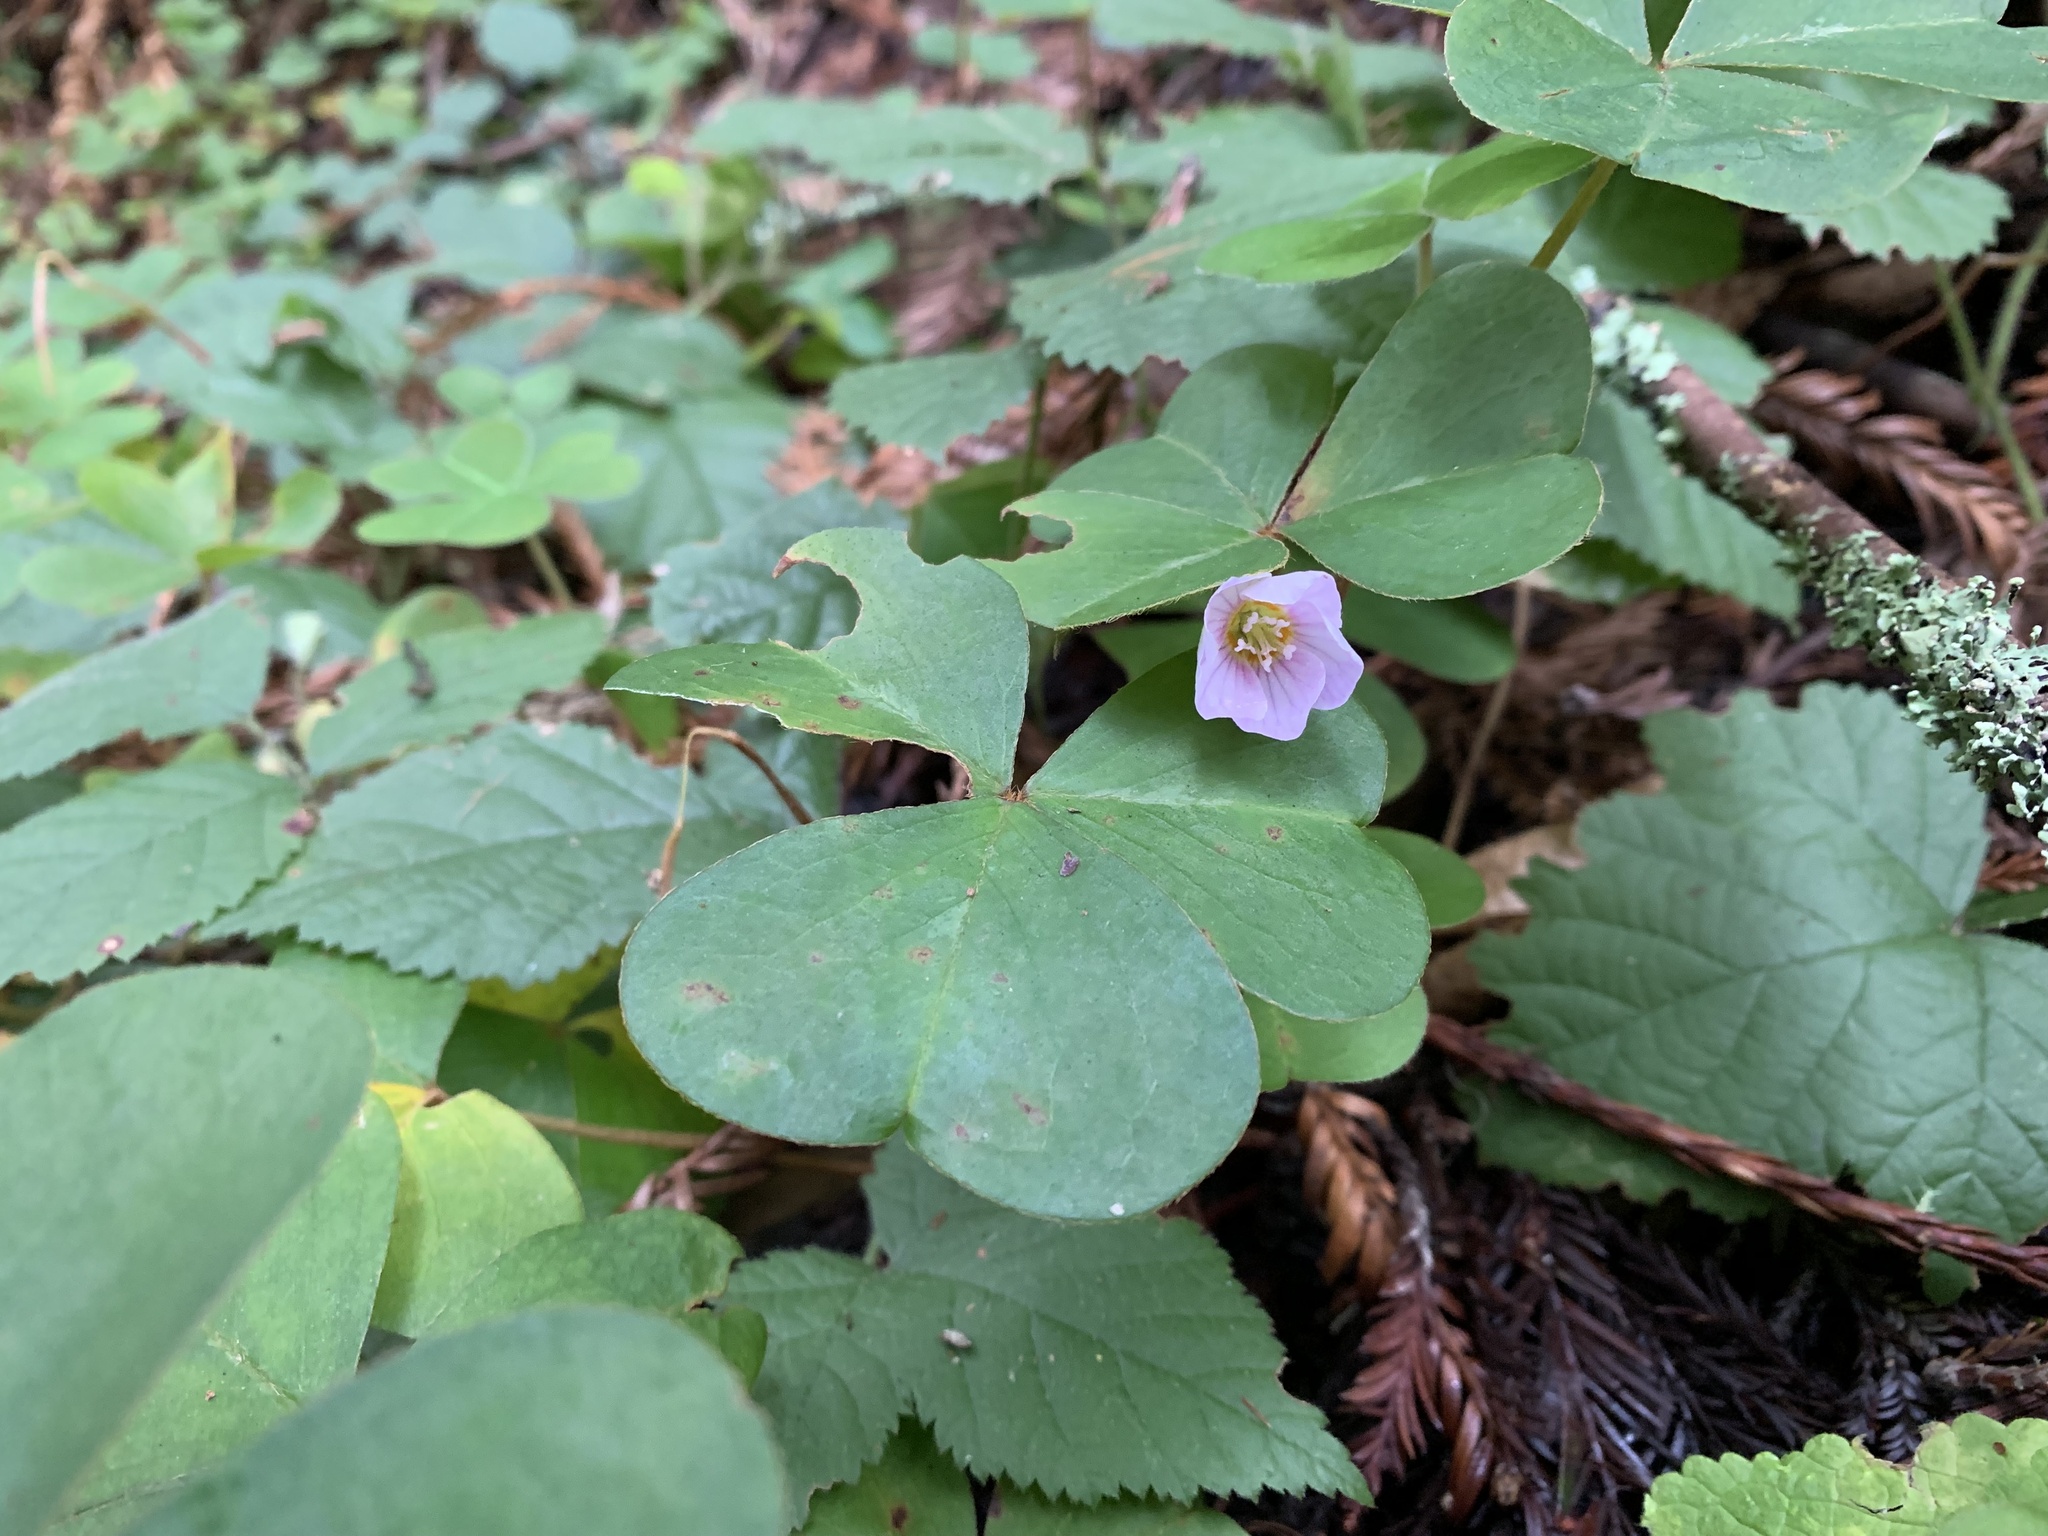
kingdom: Plantae
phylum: Tracheophyta
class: Magnoliopsida
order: Oxalidales
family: Oxalidaceae
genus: Oxalis
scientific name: Oxalis oregana
